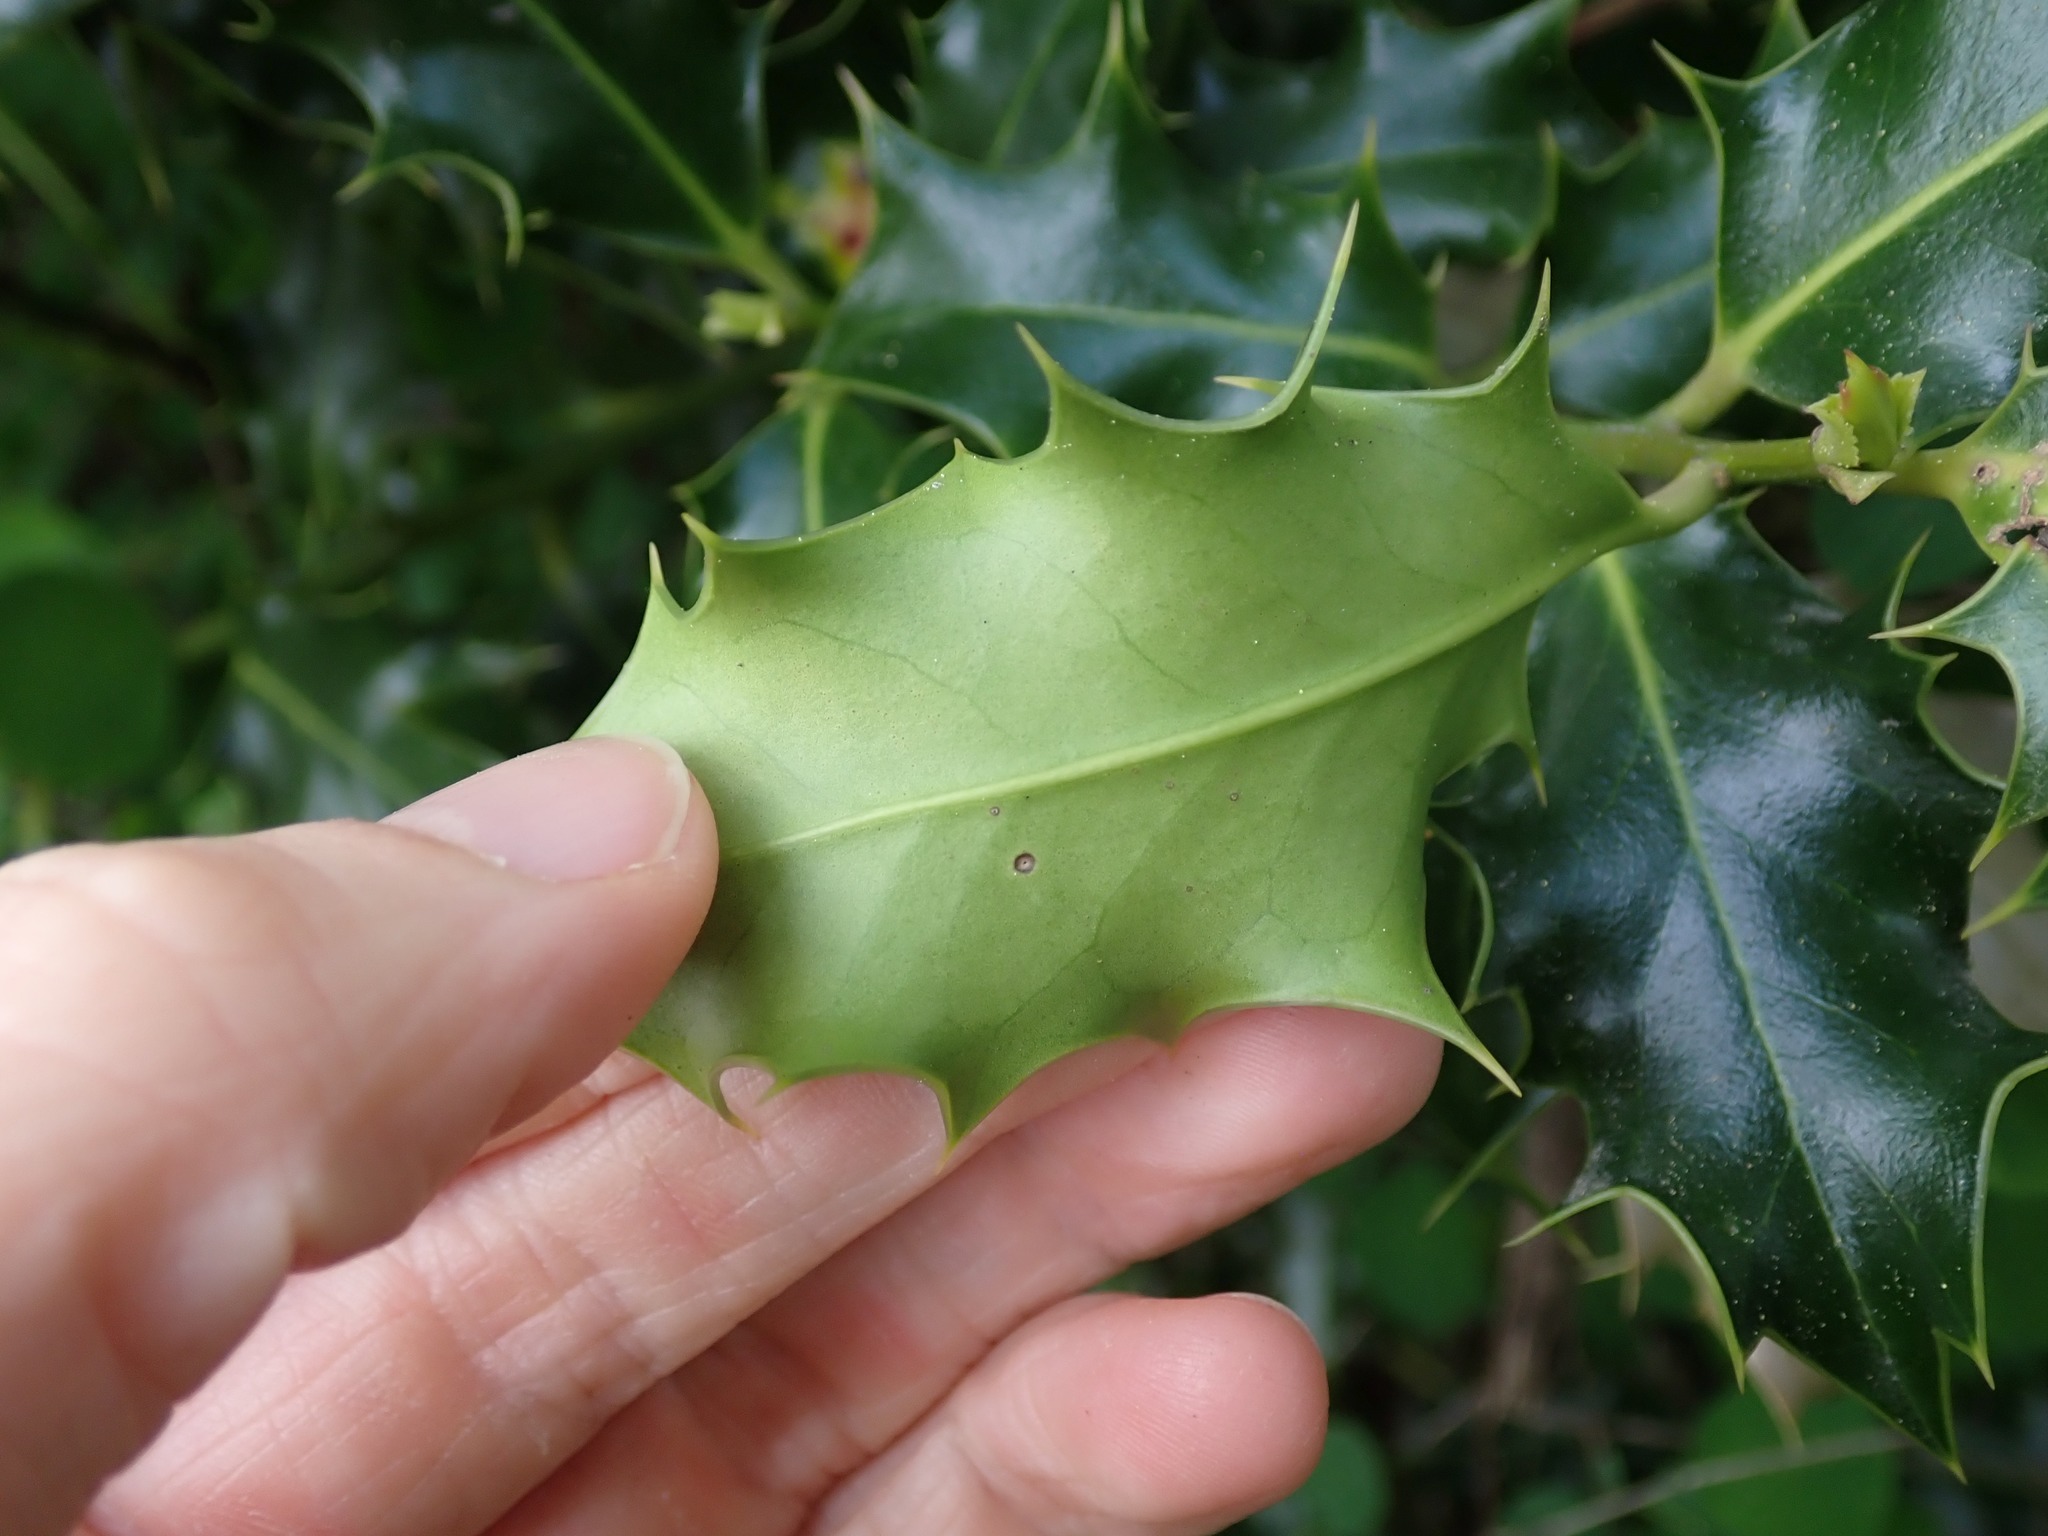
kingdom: Plantae
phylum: Tracheophyta
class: Magnoliopsida
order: Aquifoliales
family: Aquifoliaceae
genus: Ilex
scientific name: Ilex aquifolium
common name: English holly
